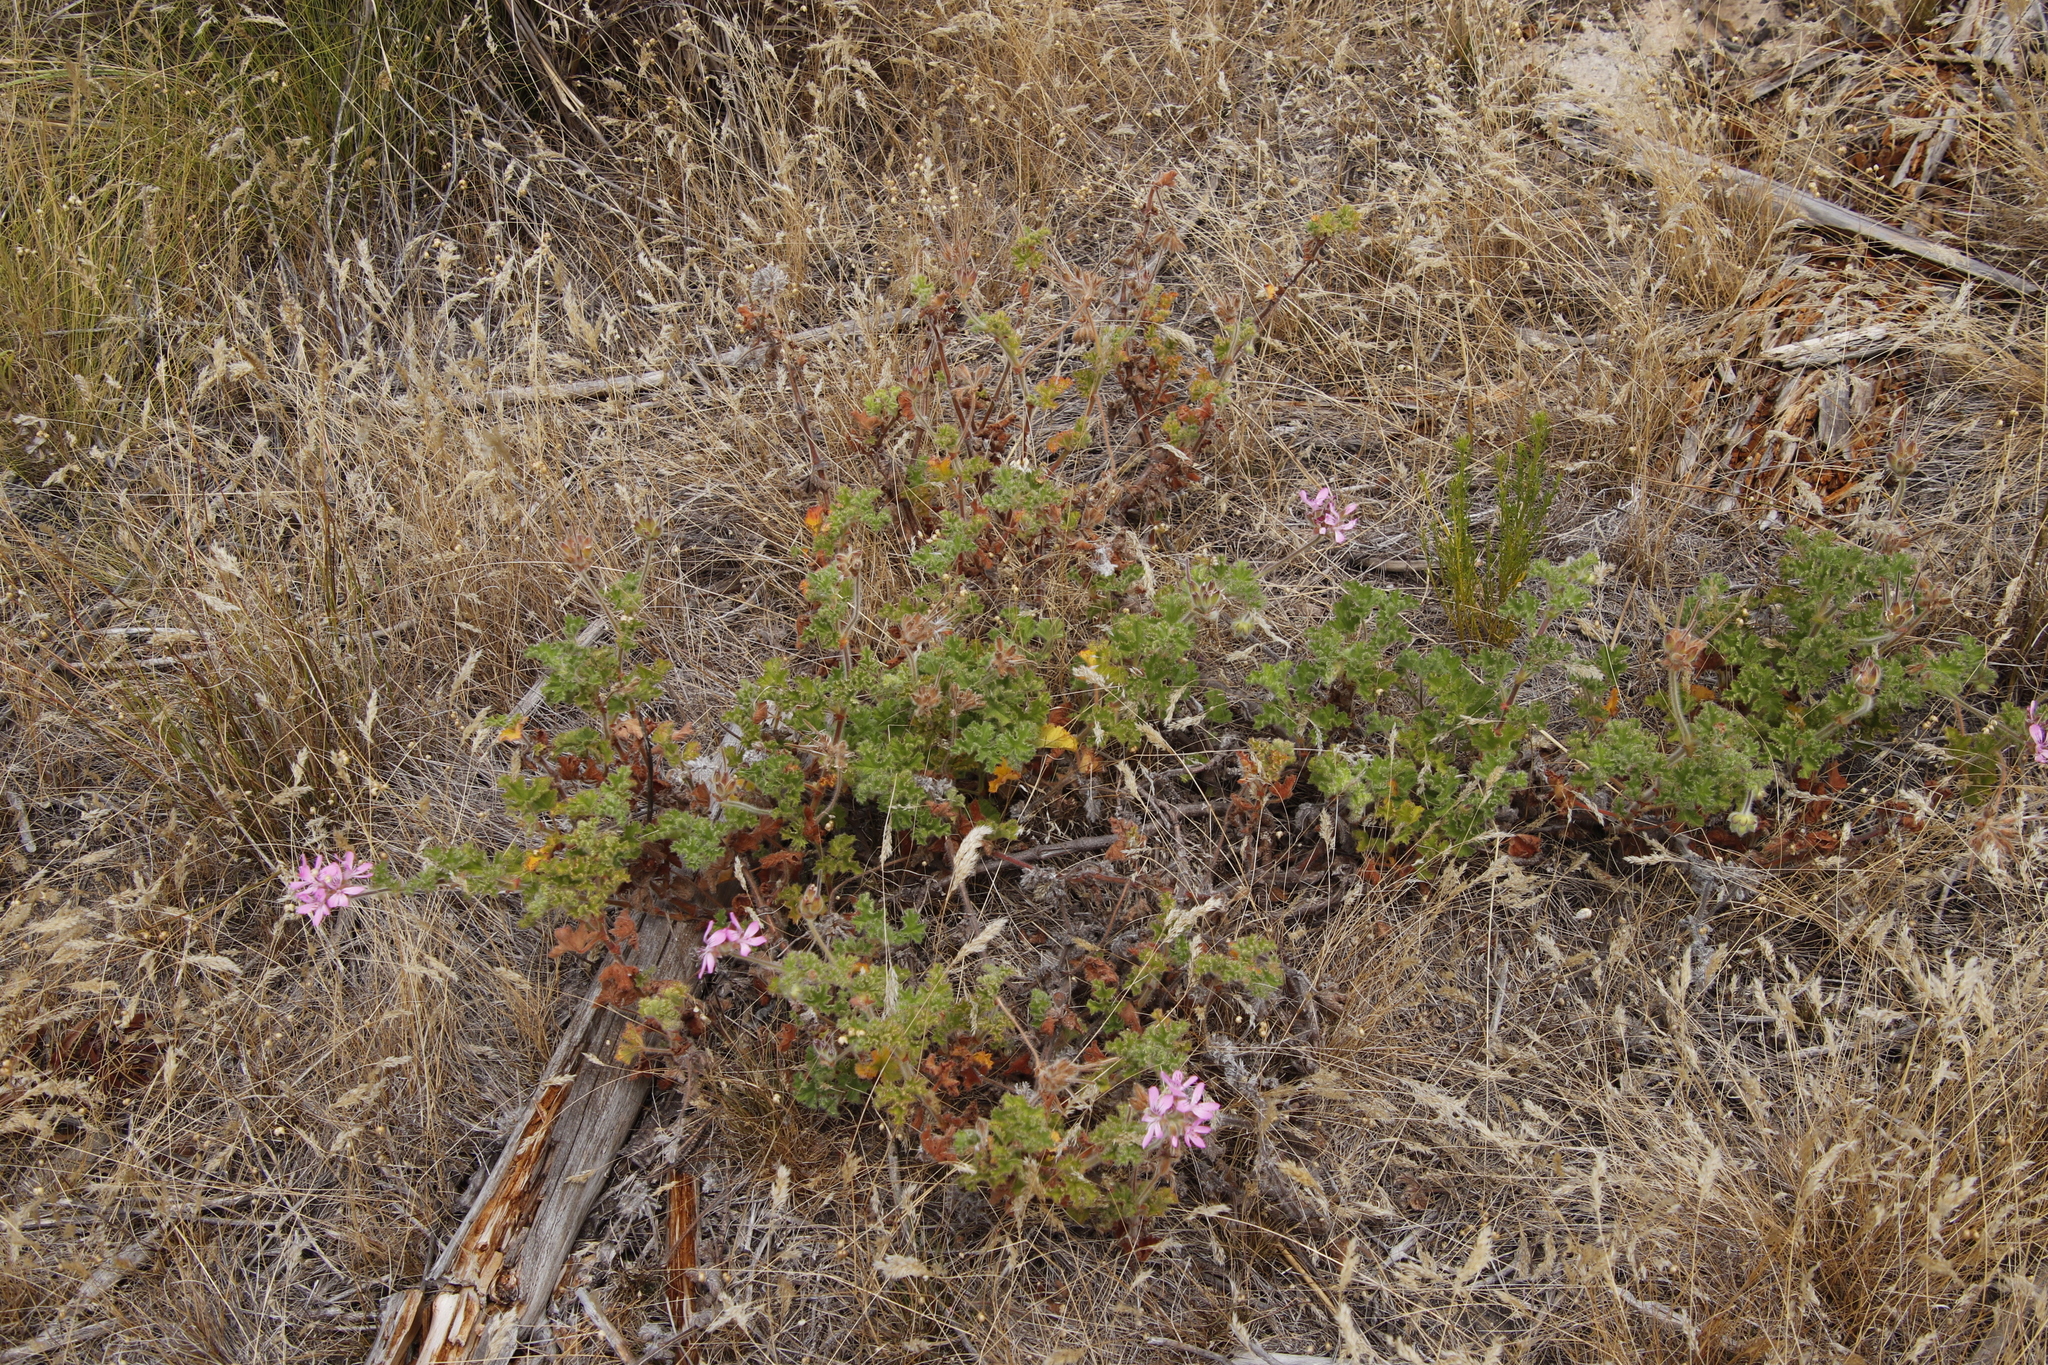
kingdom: Plantae
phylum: Tracheophyta
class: Magnoliopsida
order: Geraniales
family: Geraniaceae
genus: Pelargonium
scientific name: Pelargonium capitatum
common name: Rose scented geranium
